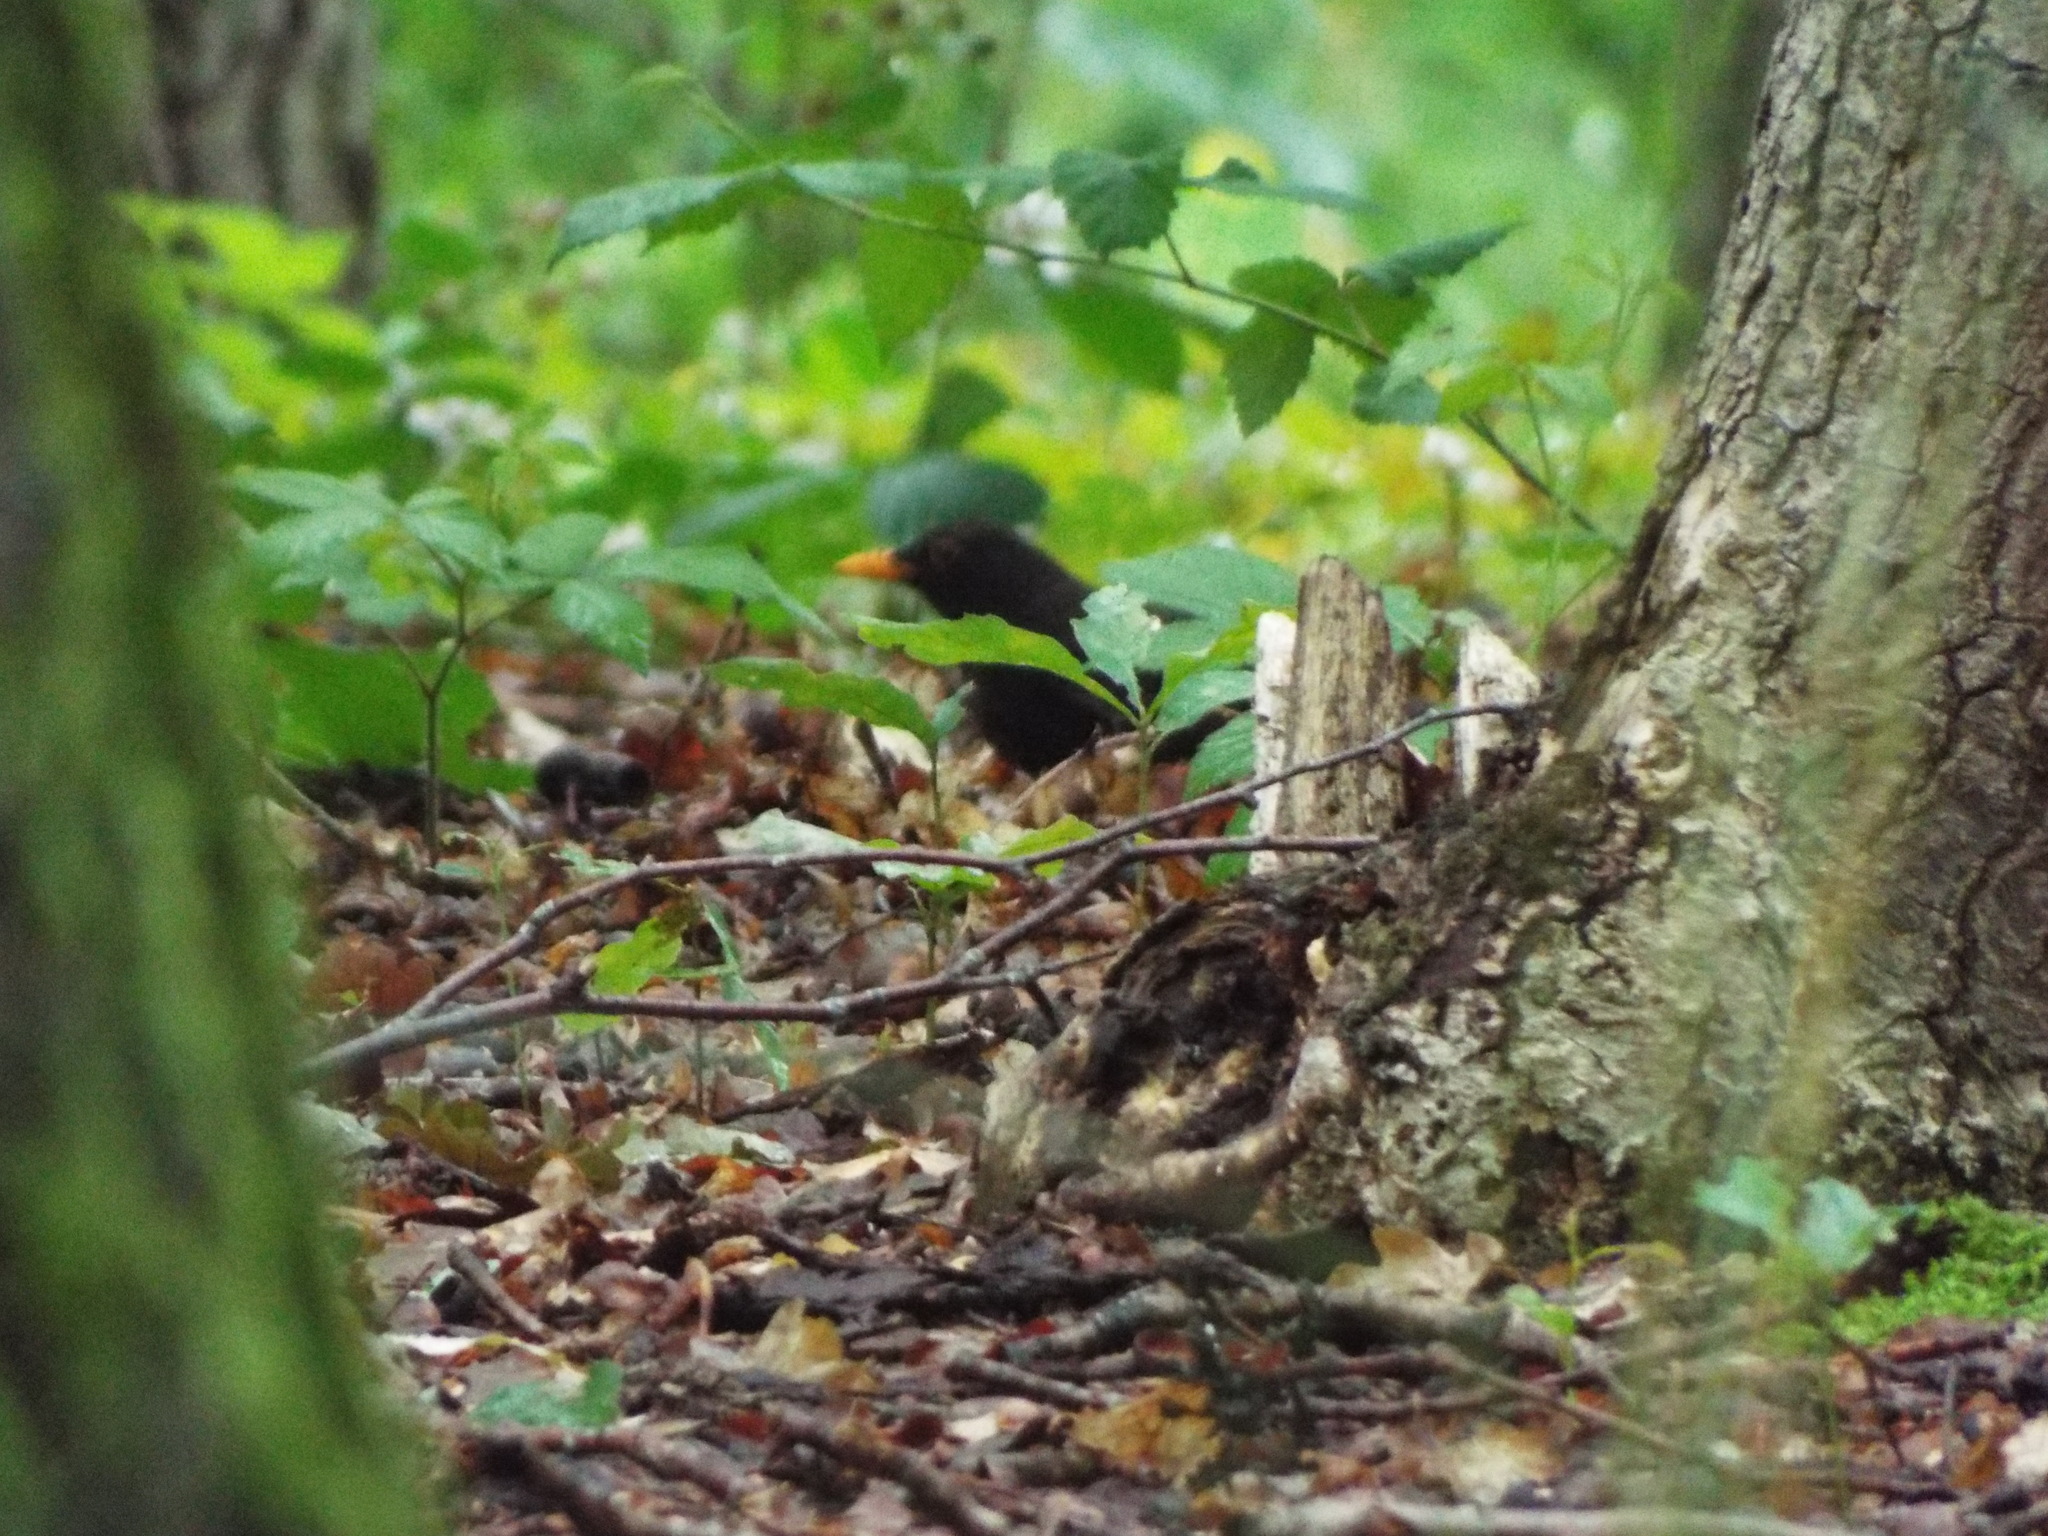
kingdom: Animalia
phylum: Chordata
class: Aves
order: Passeriformes
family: Turdidae
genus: Turdus
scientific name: Turdus merula
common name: Common blackbird
